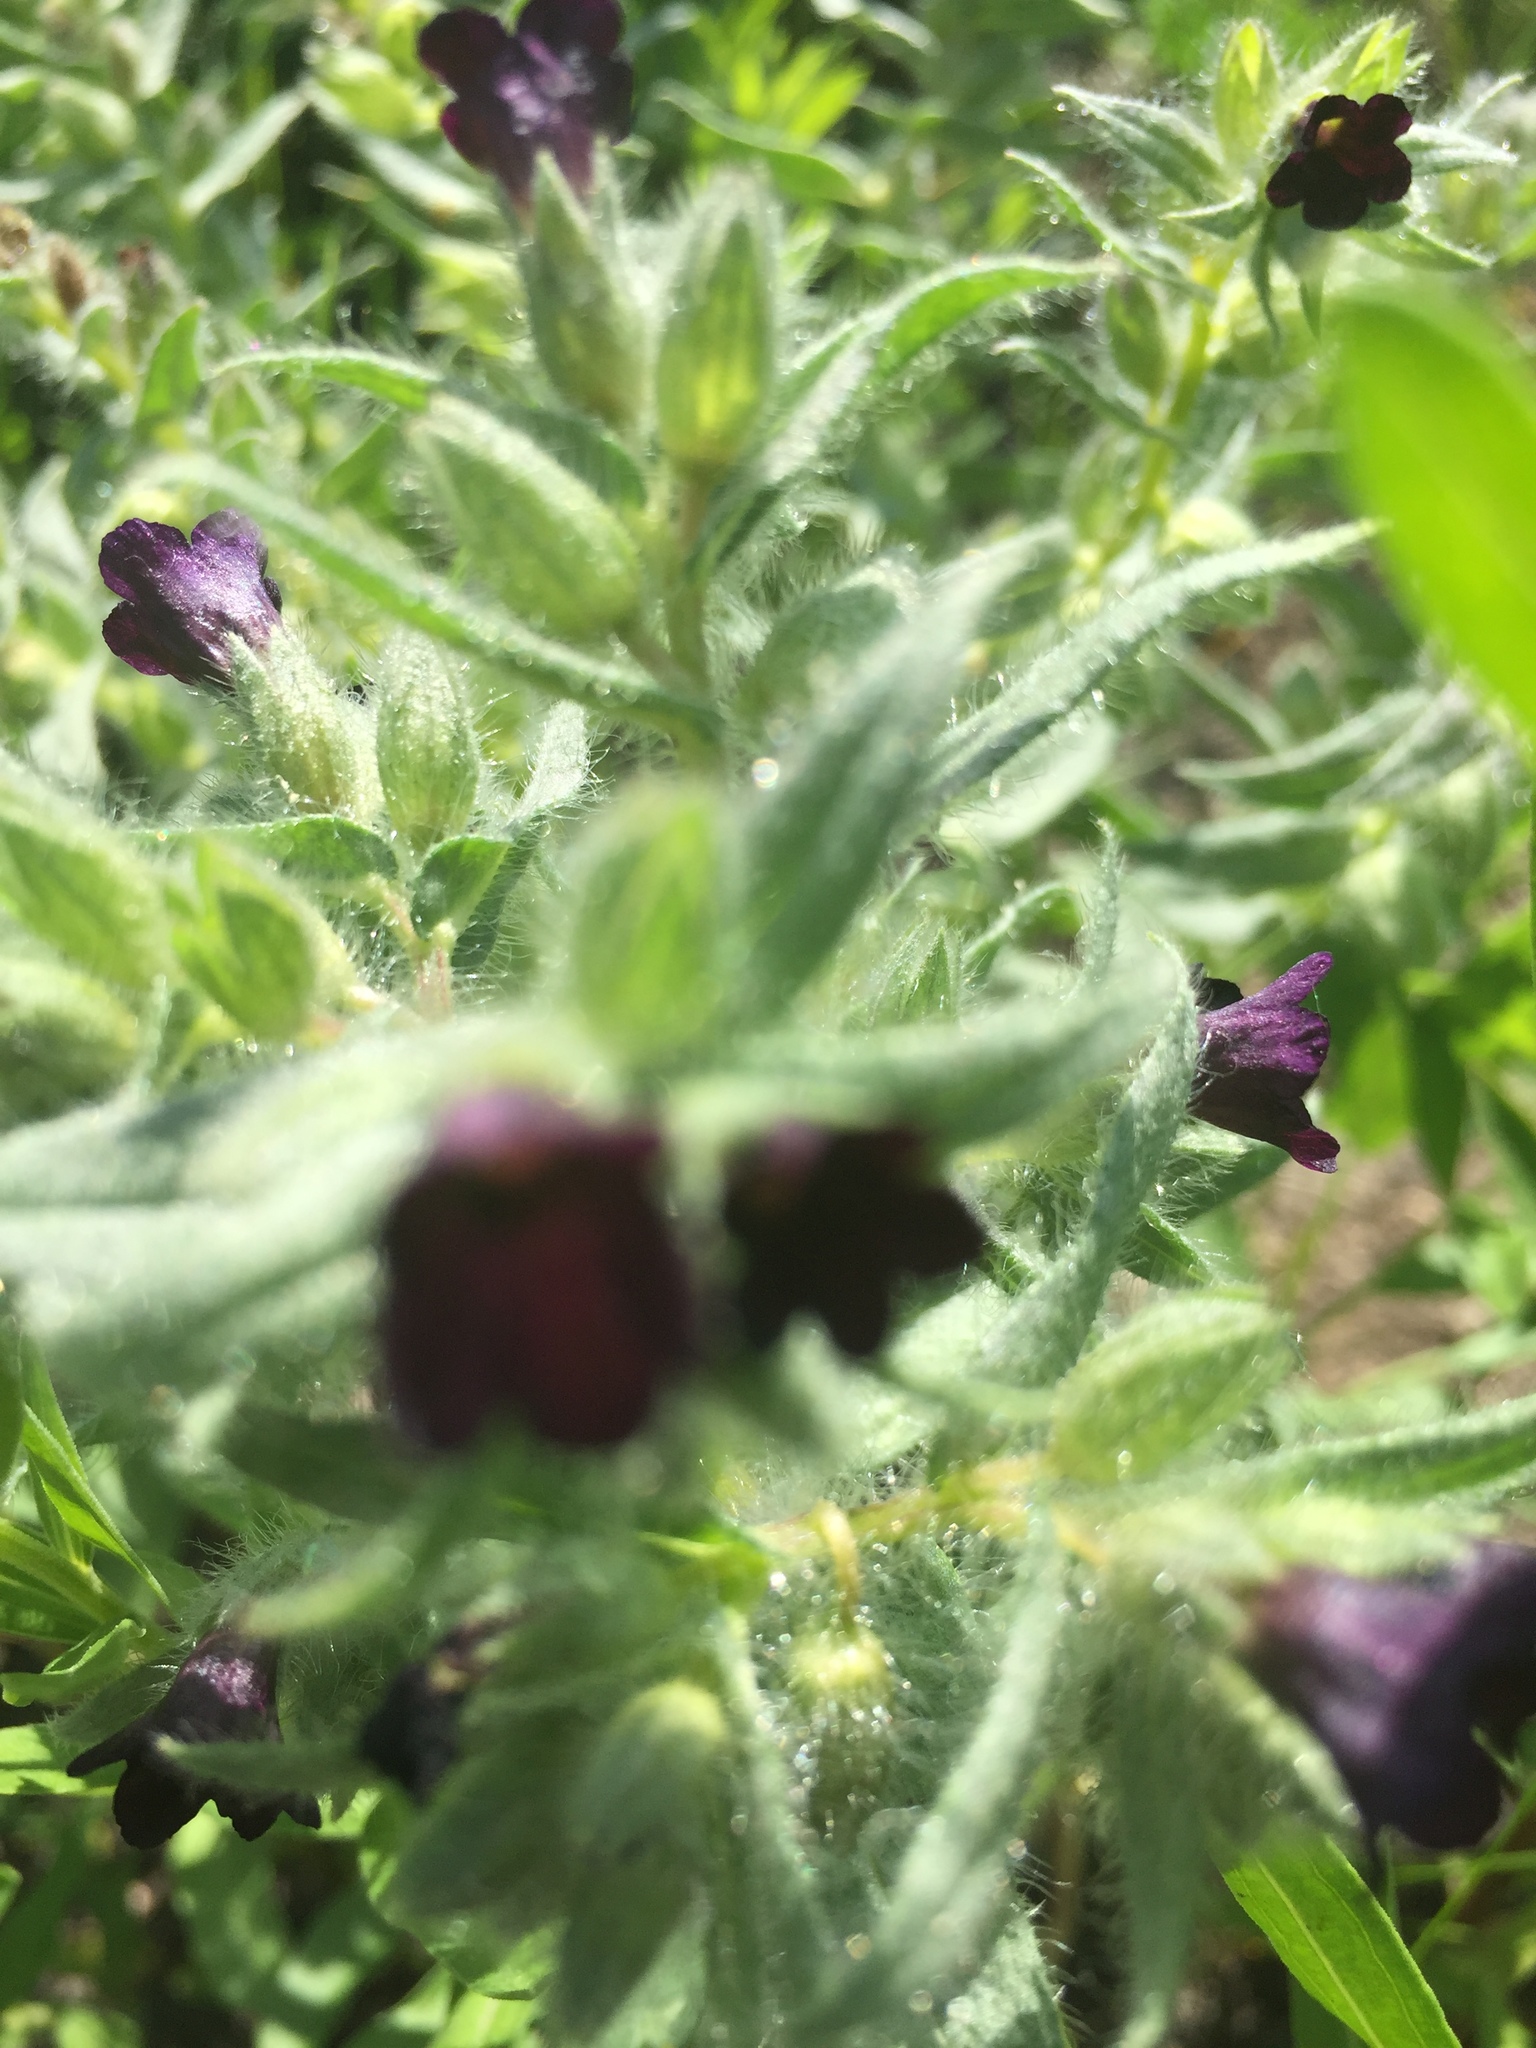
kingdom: Plantae
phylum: Tracheophyta
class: Magnoliopsida
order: Boraginales
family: Boraginaceae
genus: Nonea
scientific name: Nonea pulla
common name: Brown nonea
